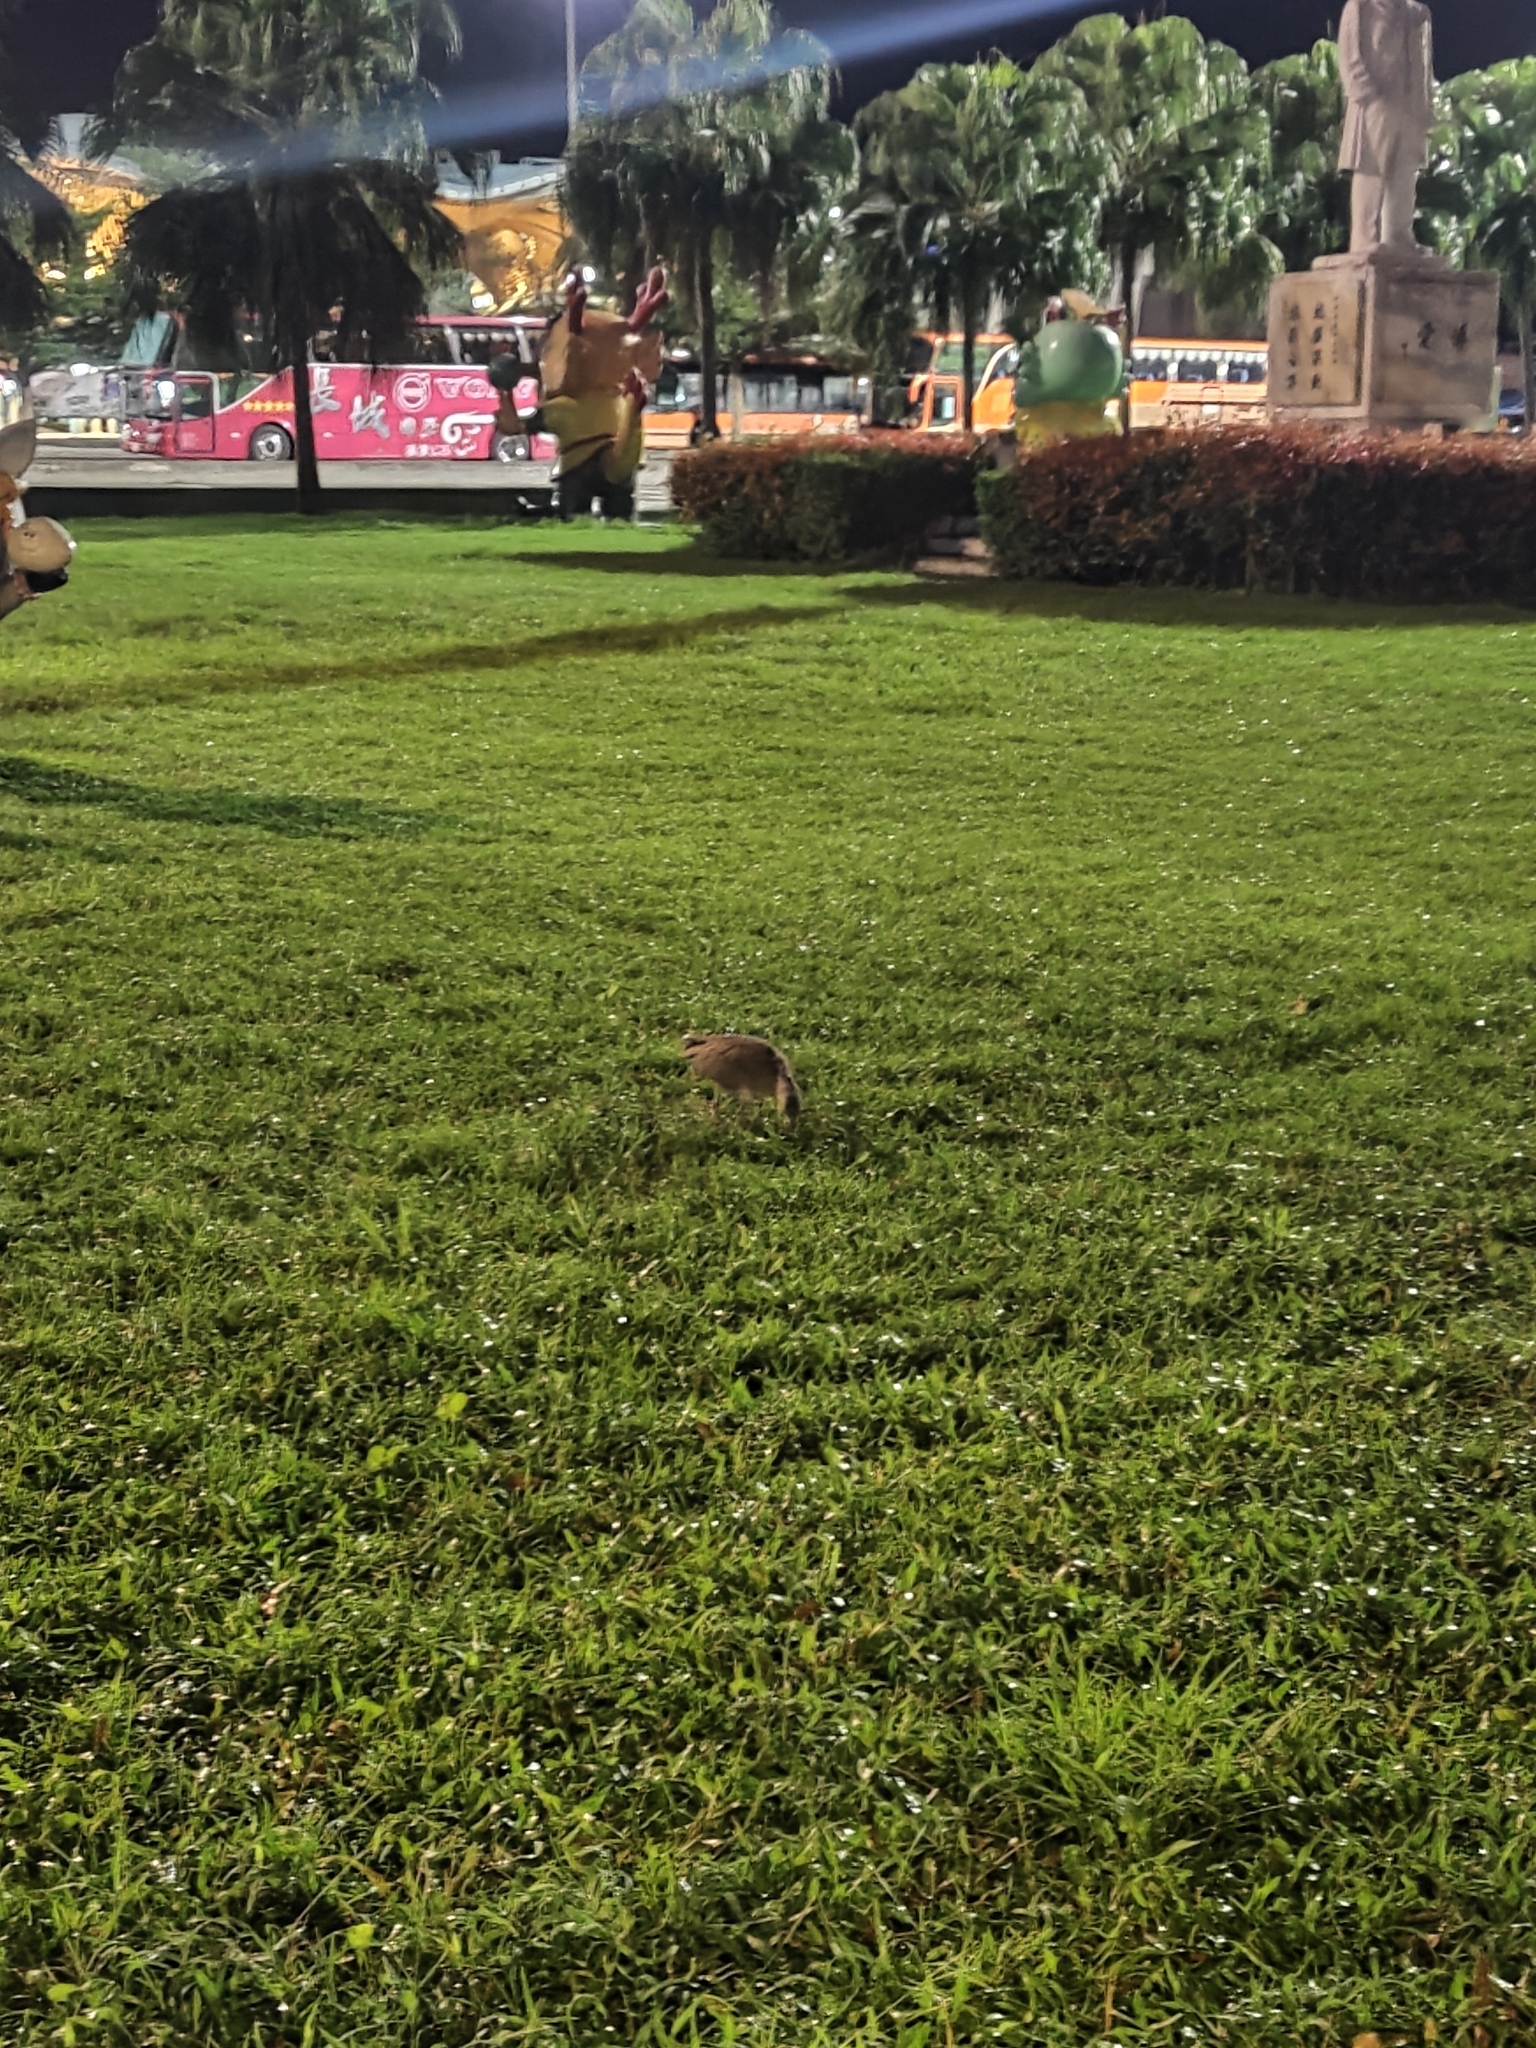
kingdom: Animalia
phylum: Chordata
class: Aves
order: Pelecaniformes
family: Ardeidae
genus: Gorsachius
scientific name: Gorsachius melanolophus
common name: Malayan night heron
